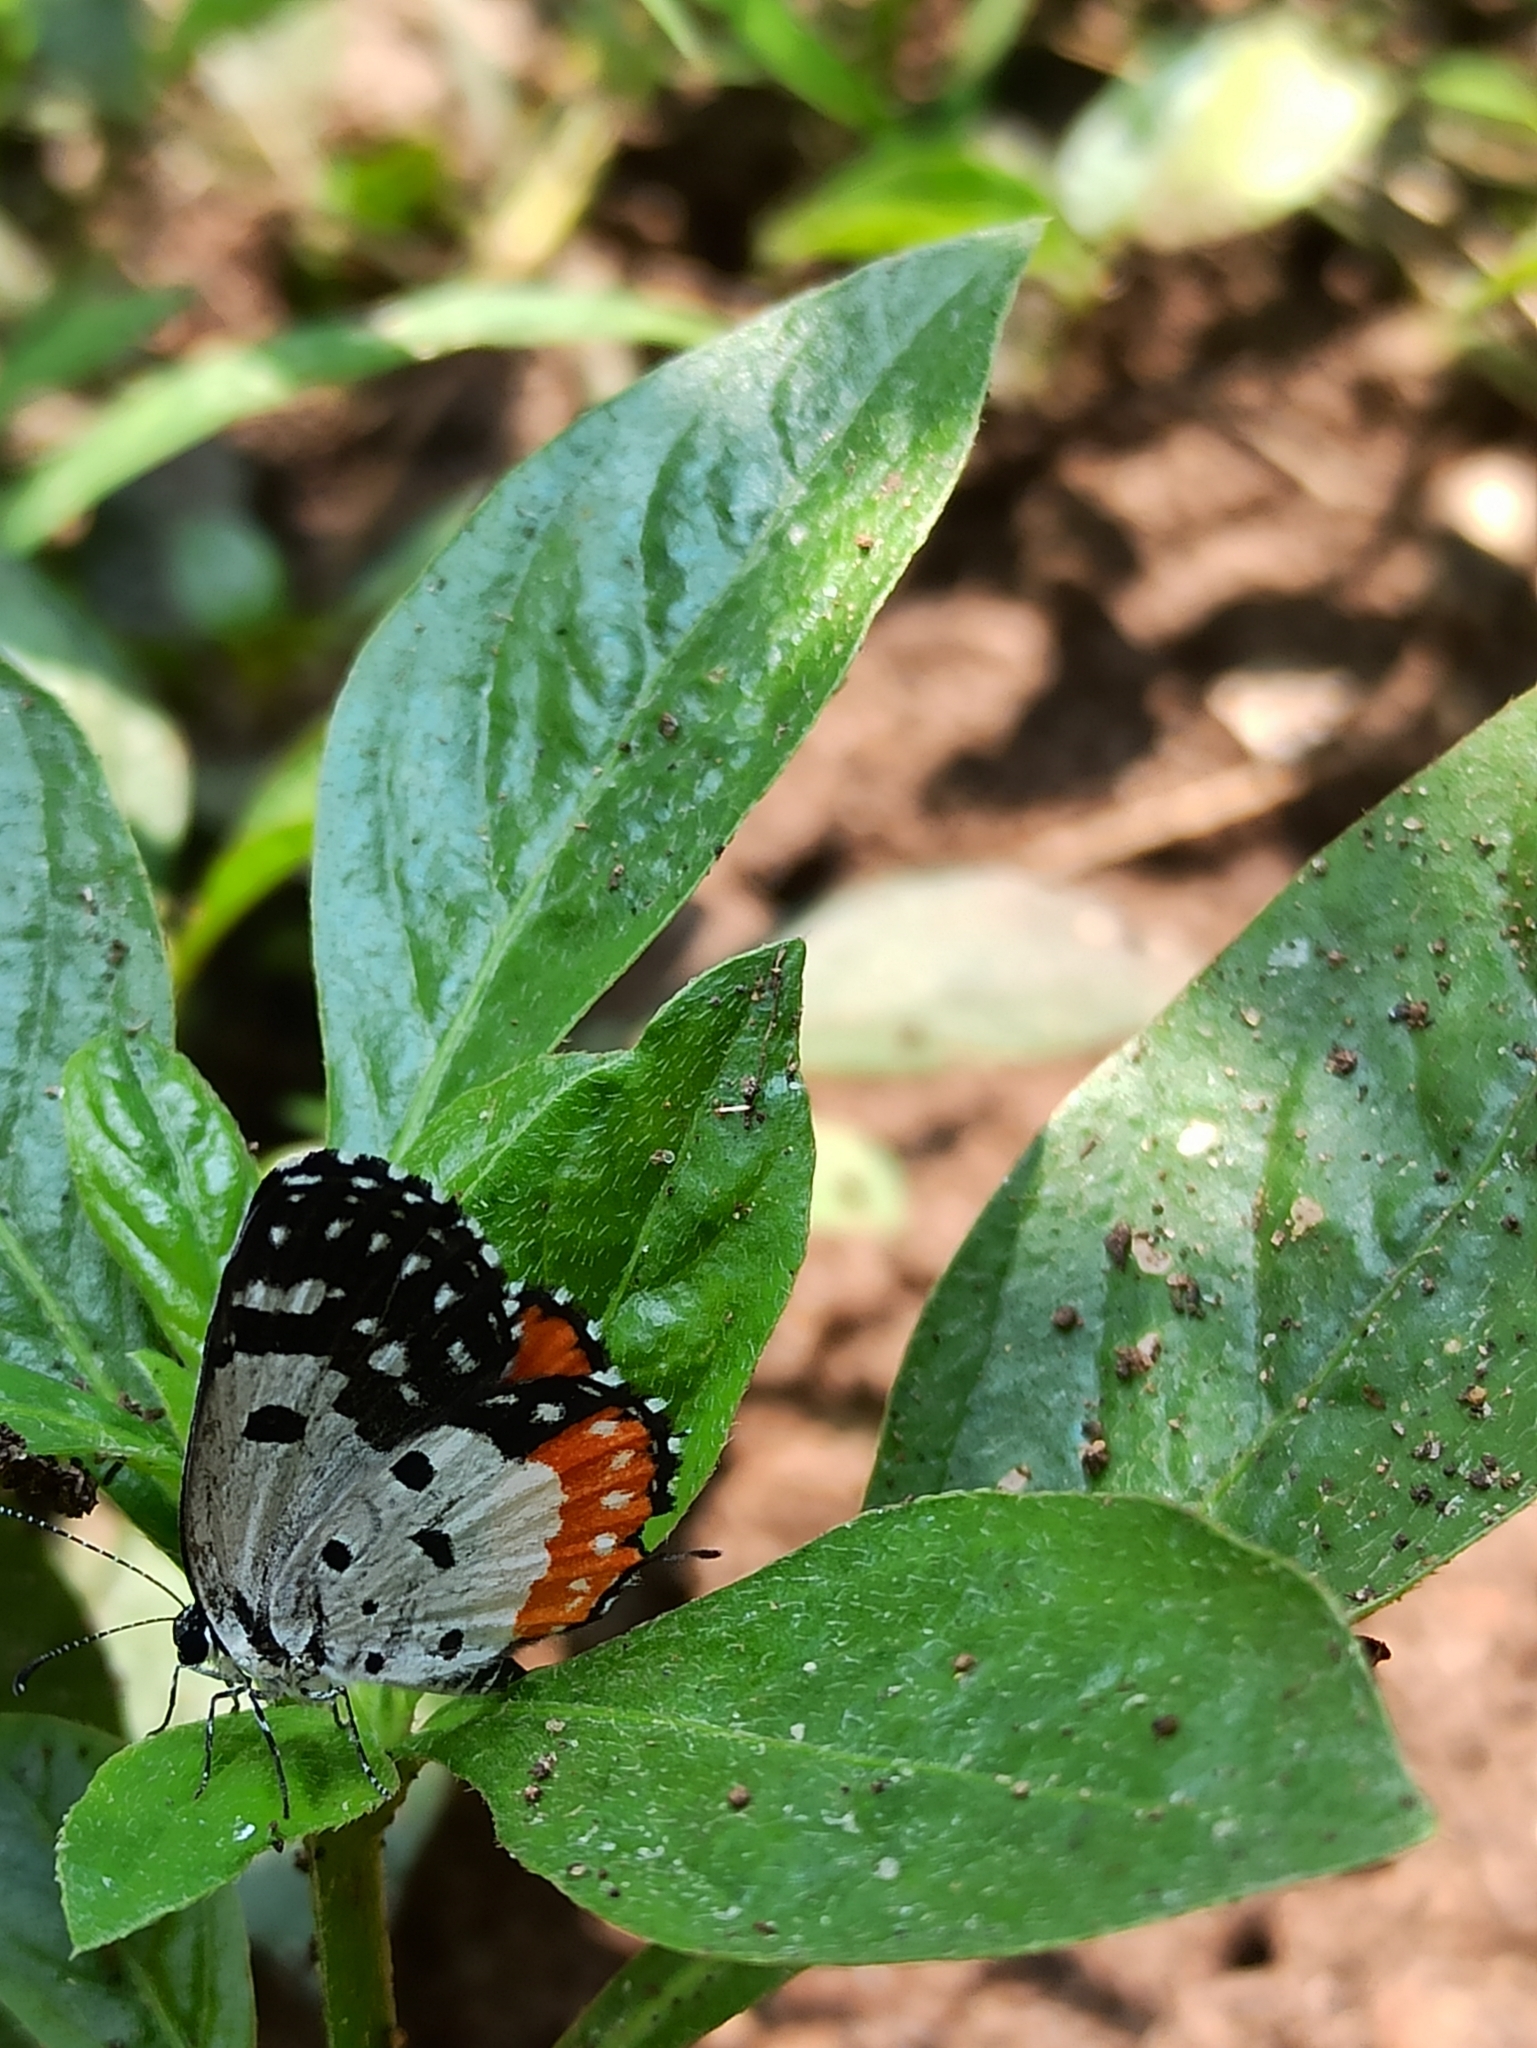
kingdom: Animalia
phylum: Arthropoda
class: Insecta
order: Lepidoptera
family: Lycaenidae
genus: Talicada
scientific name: Talicada nyseus
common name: Red pierrot
